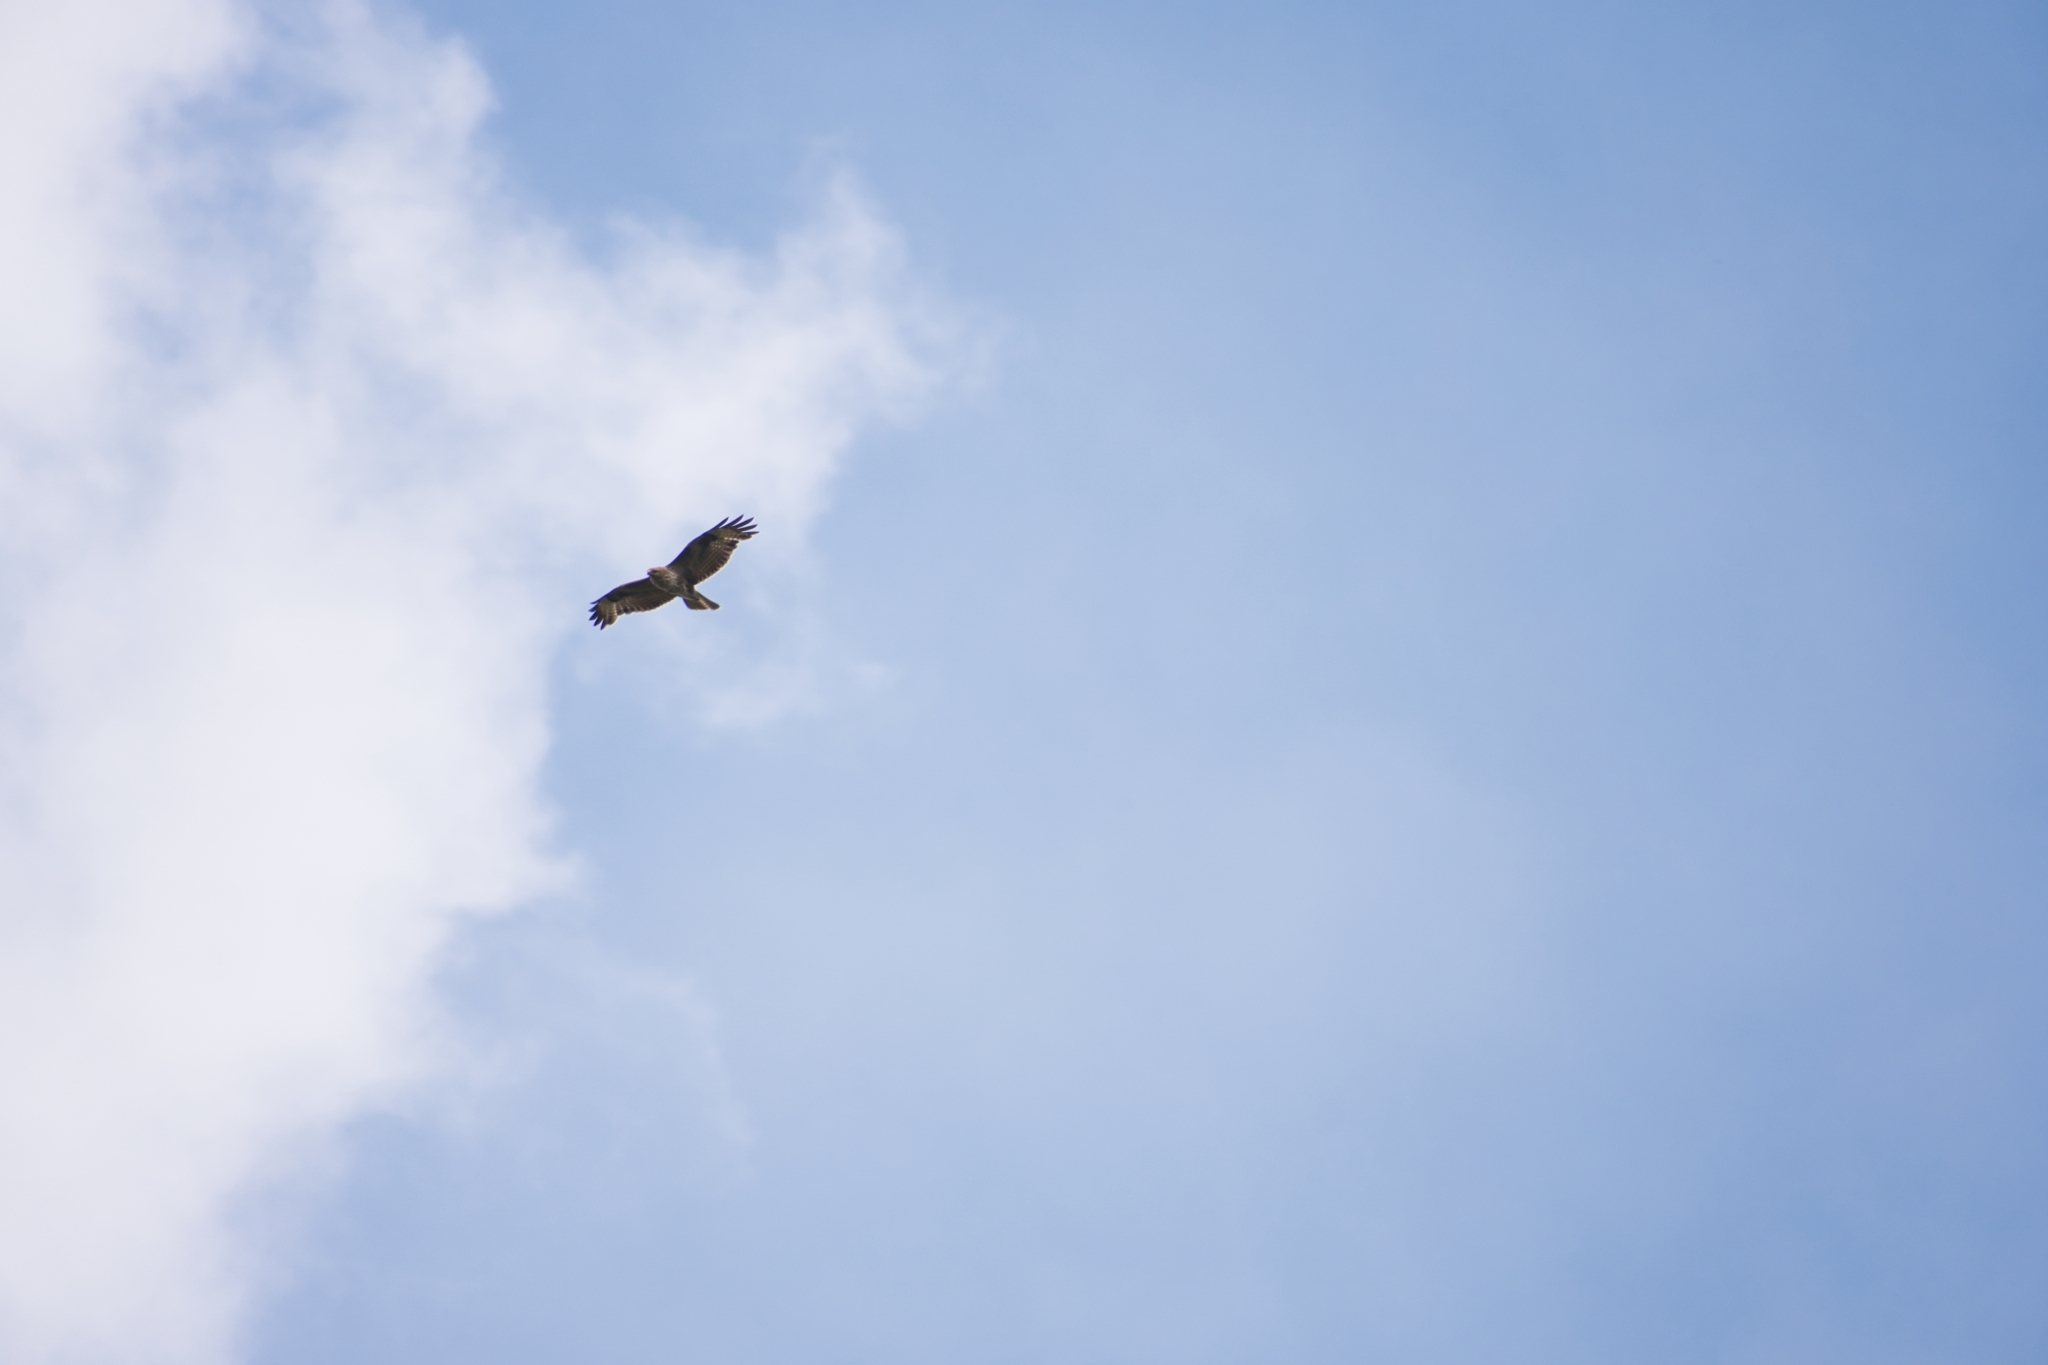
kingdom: Animalia
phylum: Chordata
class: Aves
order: Accipitriformes
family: Accipitridae
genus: Buteo
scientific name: Buteo buteo
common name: Common buzzard
